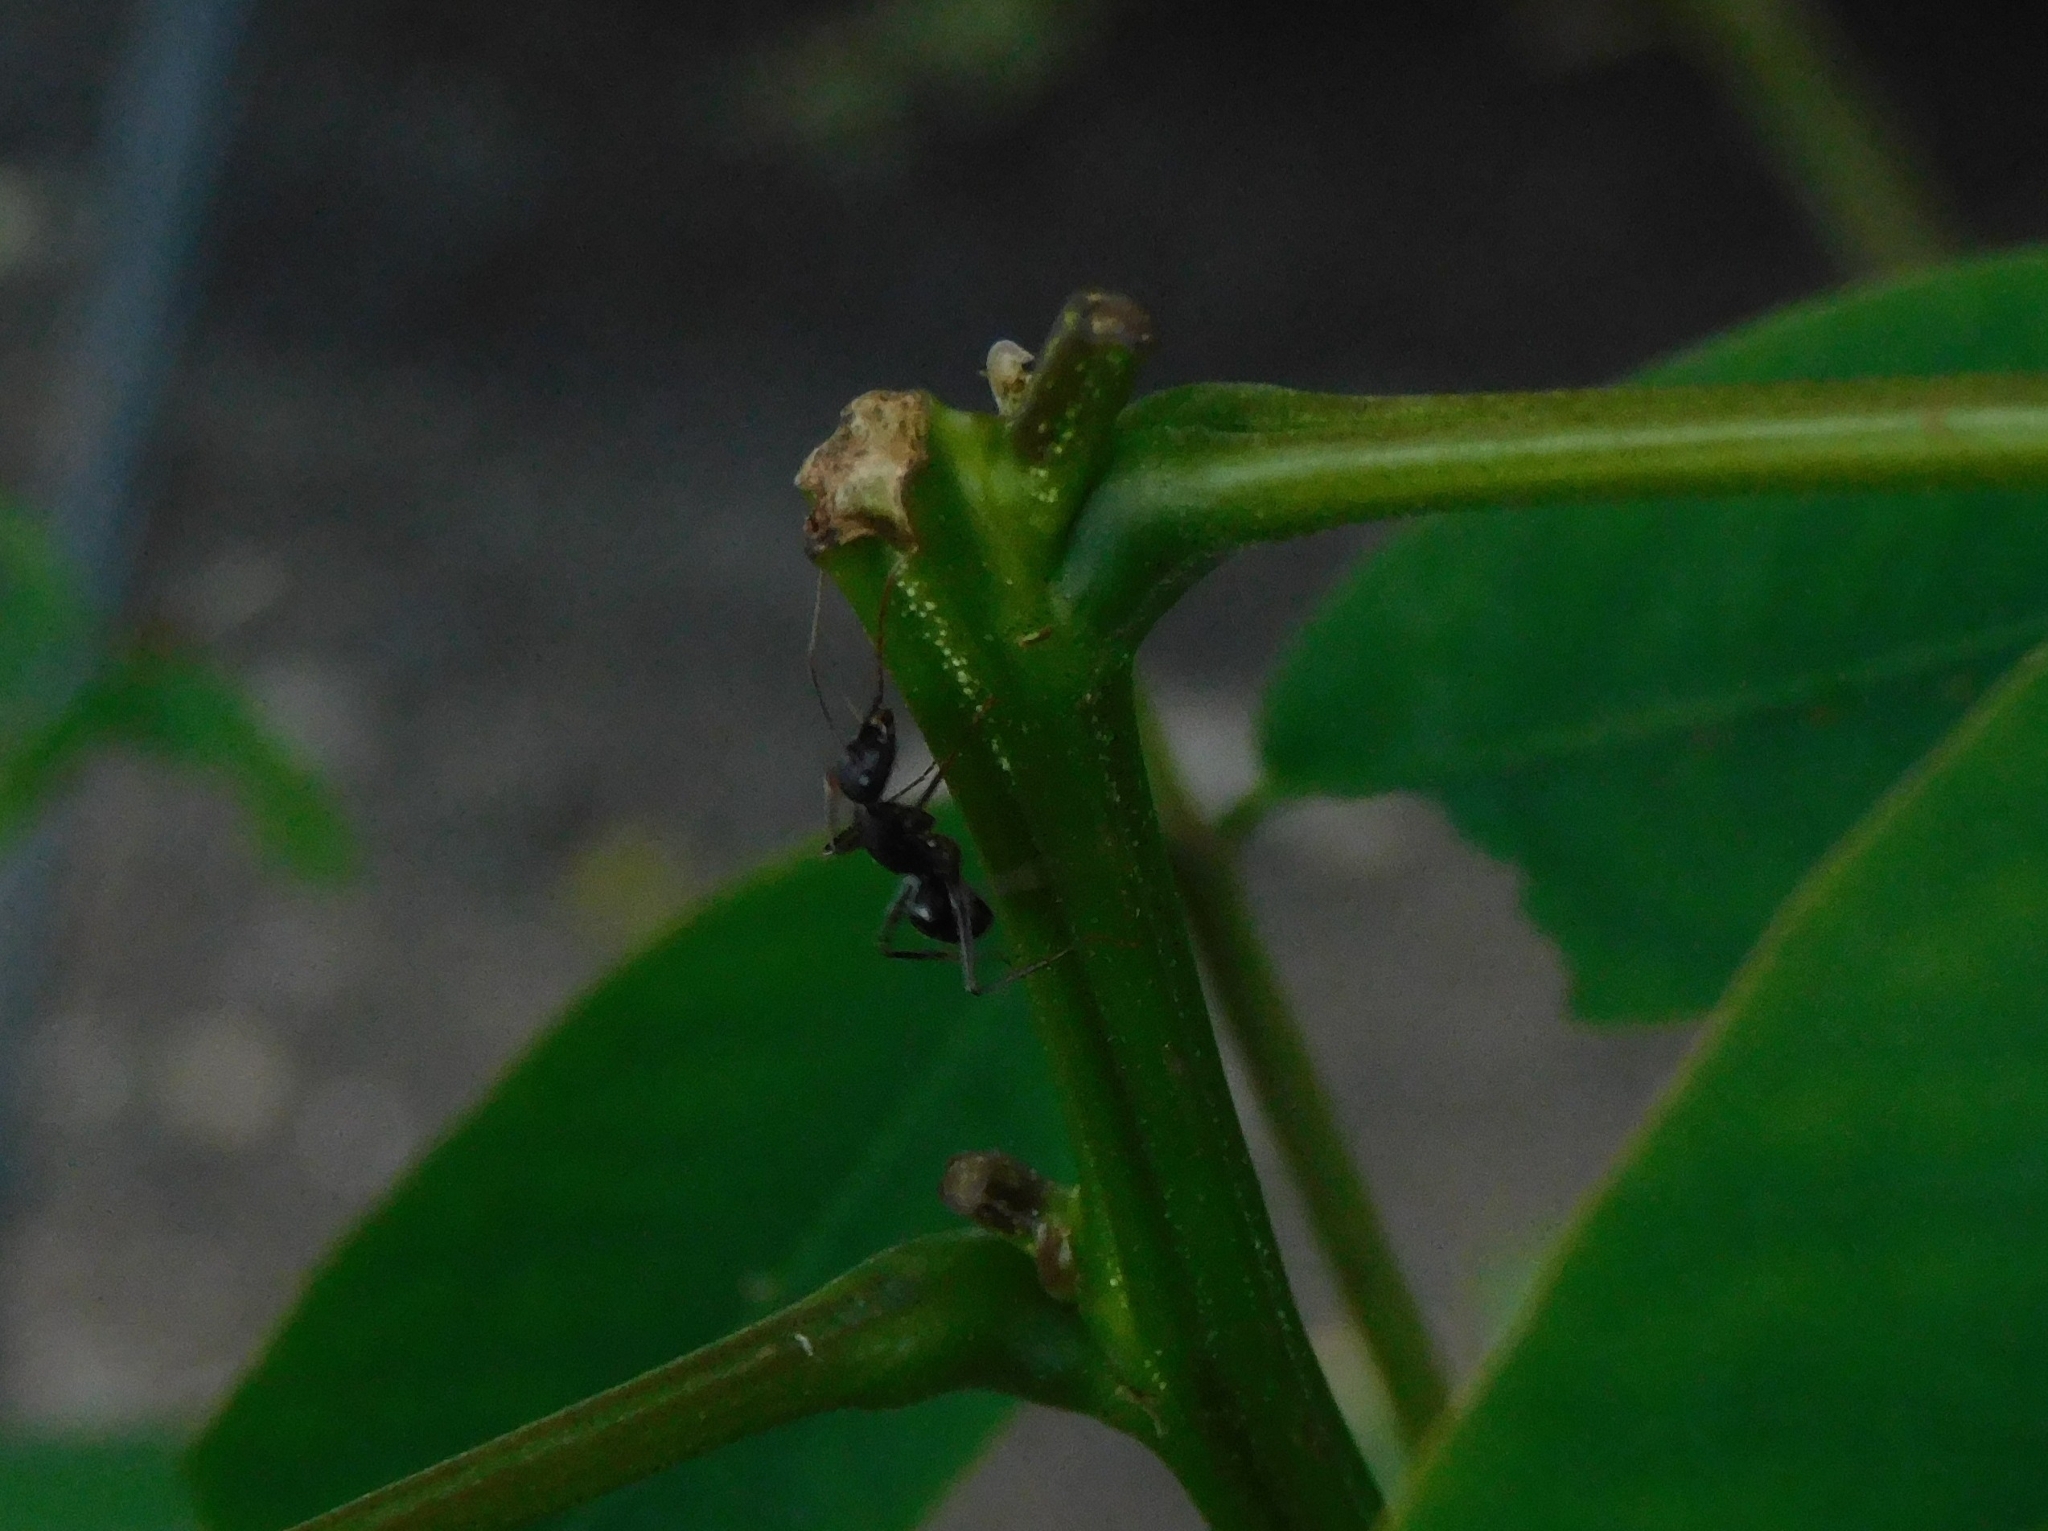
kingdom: Animalia
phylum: Arthropoda
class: Insecta
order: Hymenoptera
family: Formicidae
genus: Camponotus
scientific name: Camponotus compressus
